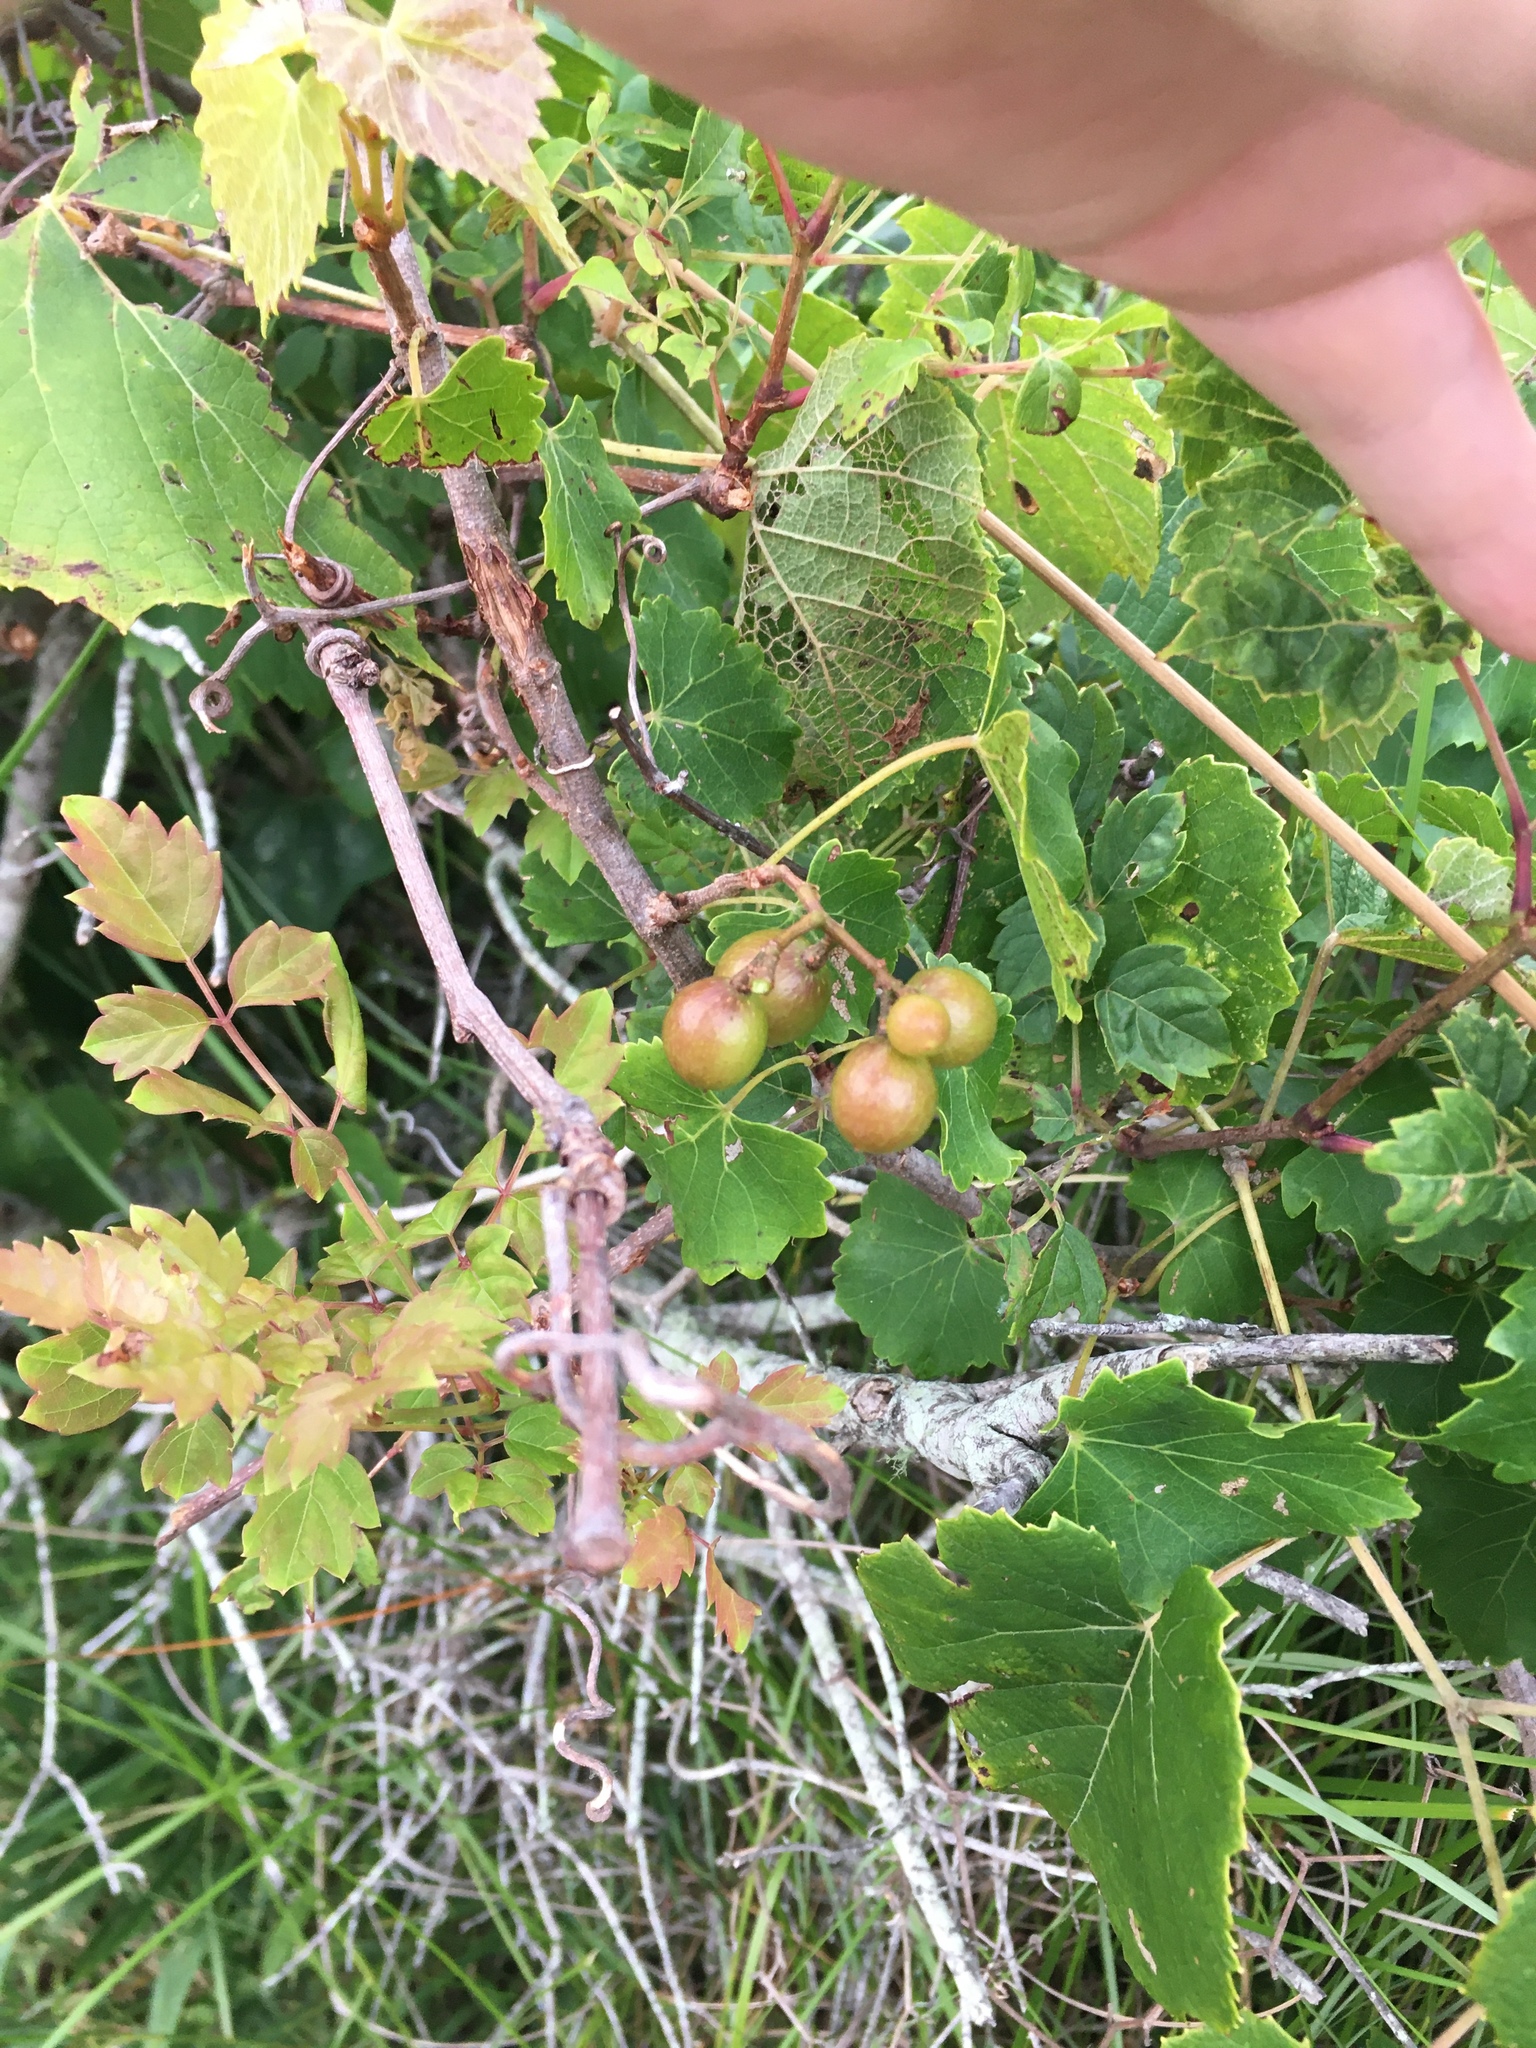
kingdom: Plantae
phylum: Tracheophyta
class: Magnoliopsida
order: Vitales
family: Vitaceae
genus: Vitis
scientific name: Vitis rotundifolia
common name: Muscadine grape
